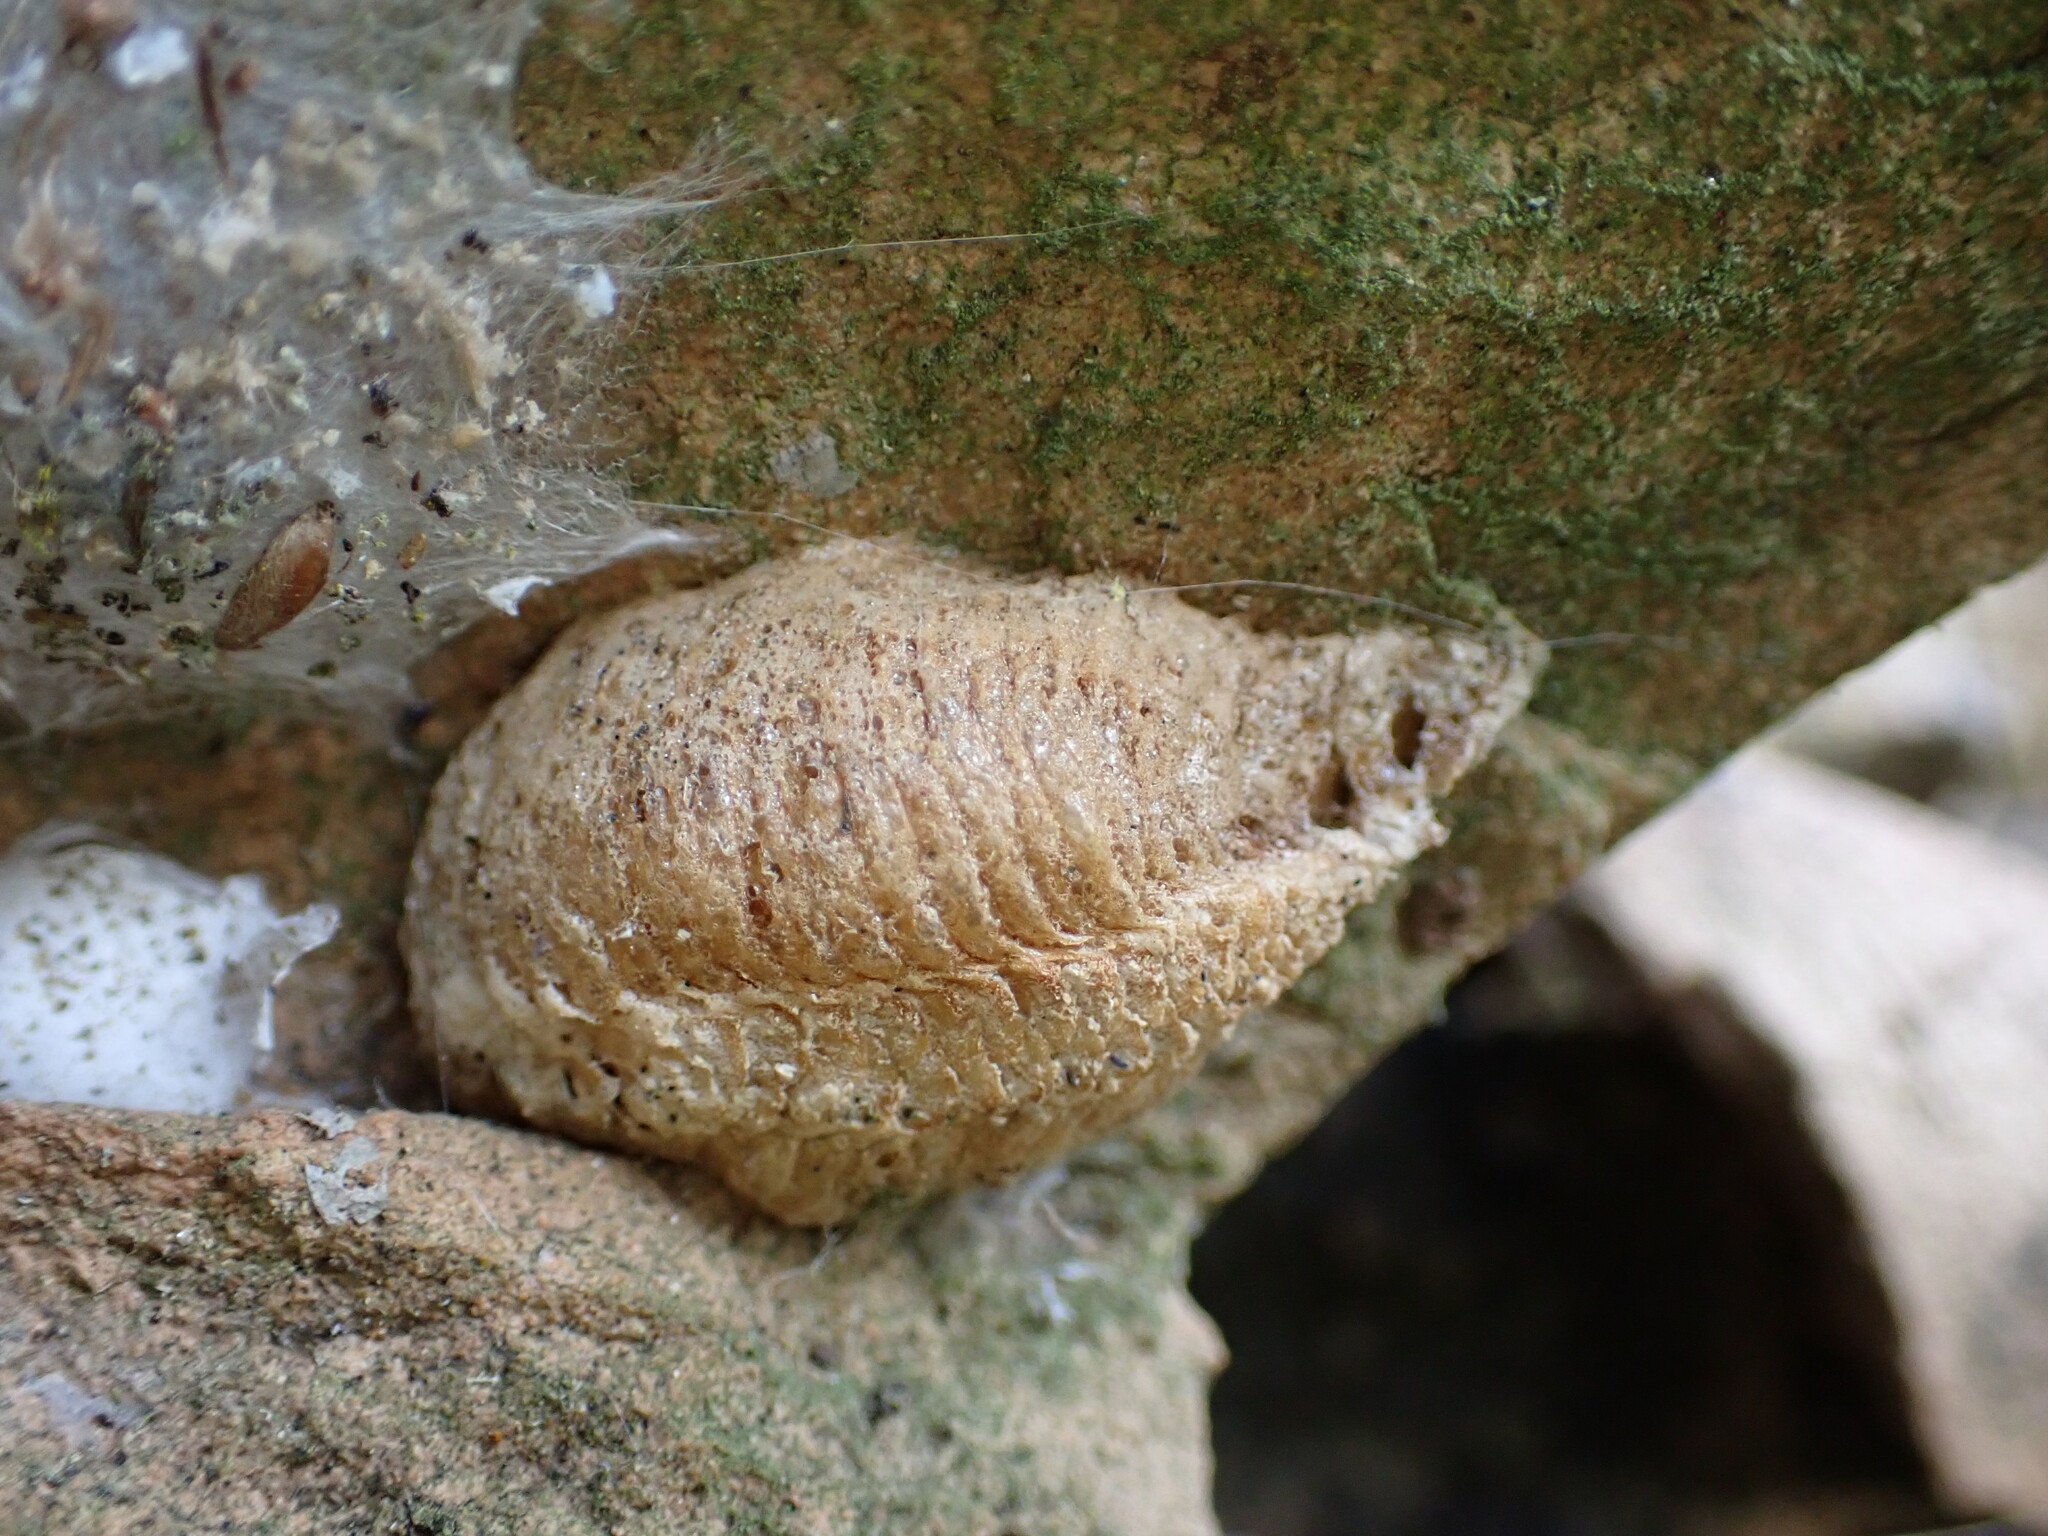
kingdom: Animalia
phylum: Arthropoda
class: Insecta
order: Mantodea
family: Mantidae
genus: Mantis
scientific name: Mantis religiosa
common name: Praying mantis
